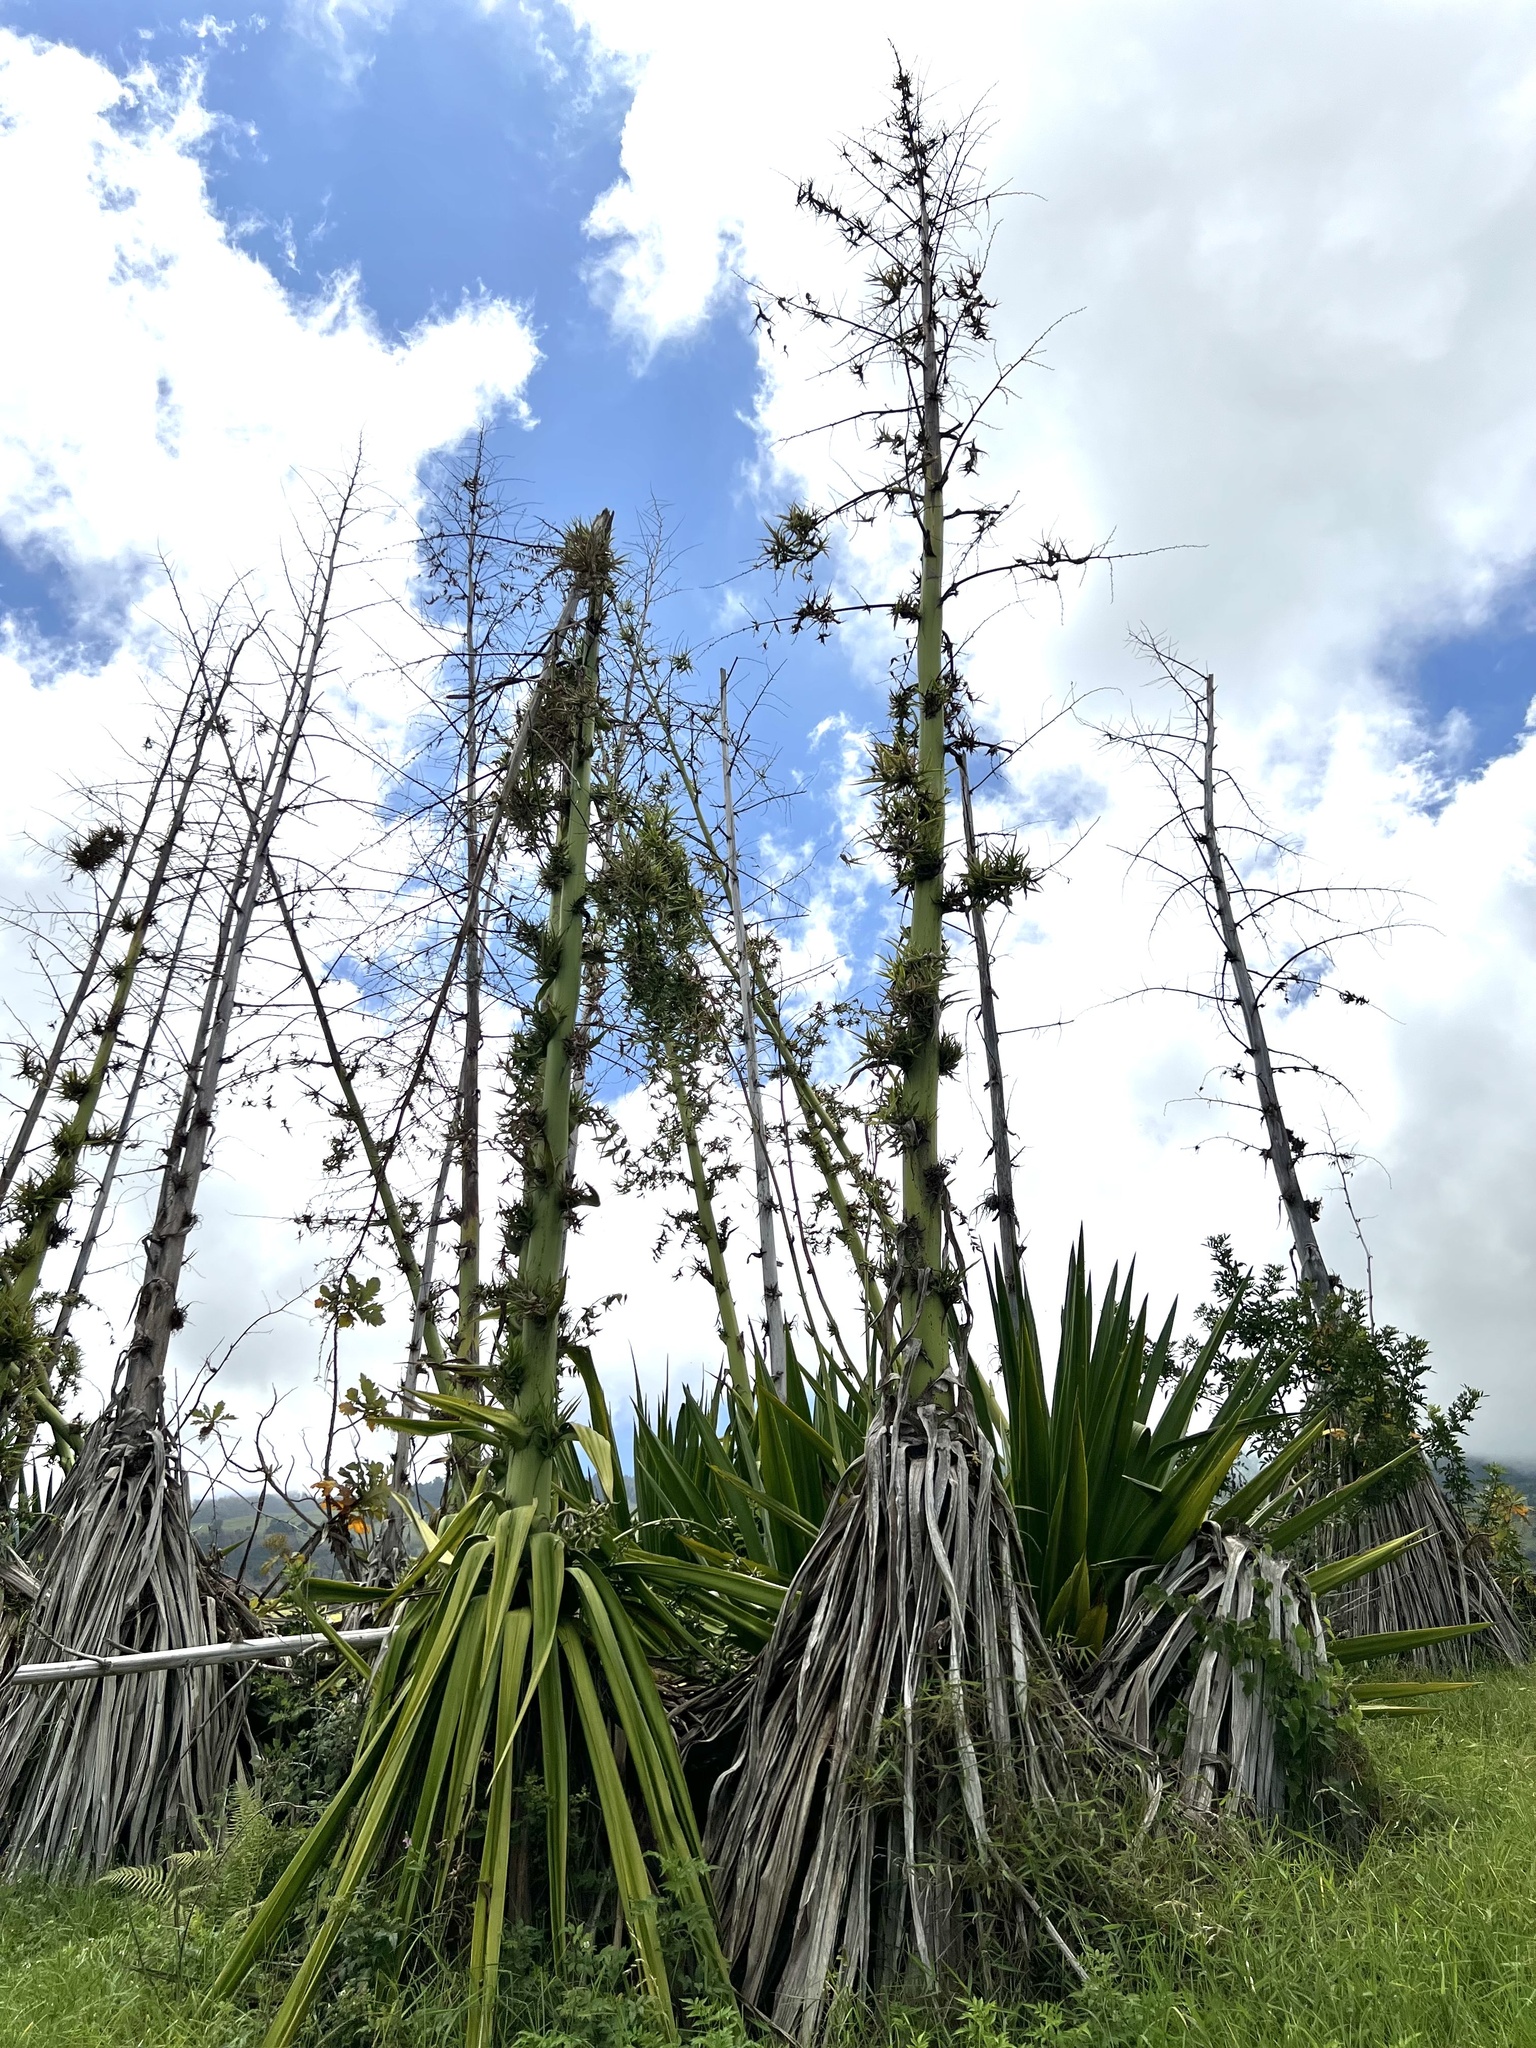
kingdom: Plantae
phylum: Tracheophyta
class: Liliopsida
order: Asparagales
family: Asparagaceae
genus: Furcraea
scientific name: Furcraea foetida
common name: Mauritius hemp
